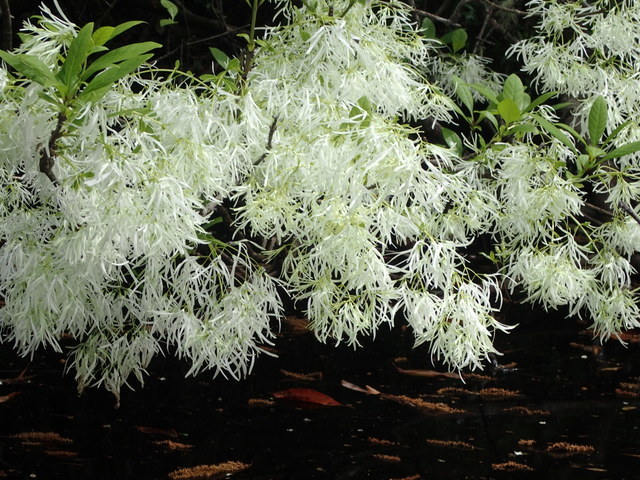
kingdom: Plantae
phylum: Tracheophyta
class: Magnoliopsida
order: Lamiales
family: Oleaceae
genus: Chionanthus
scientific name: Chionanthus virginicus
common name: American fringetree
